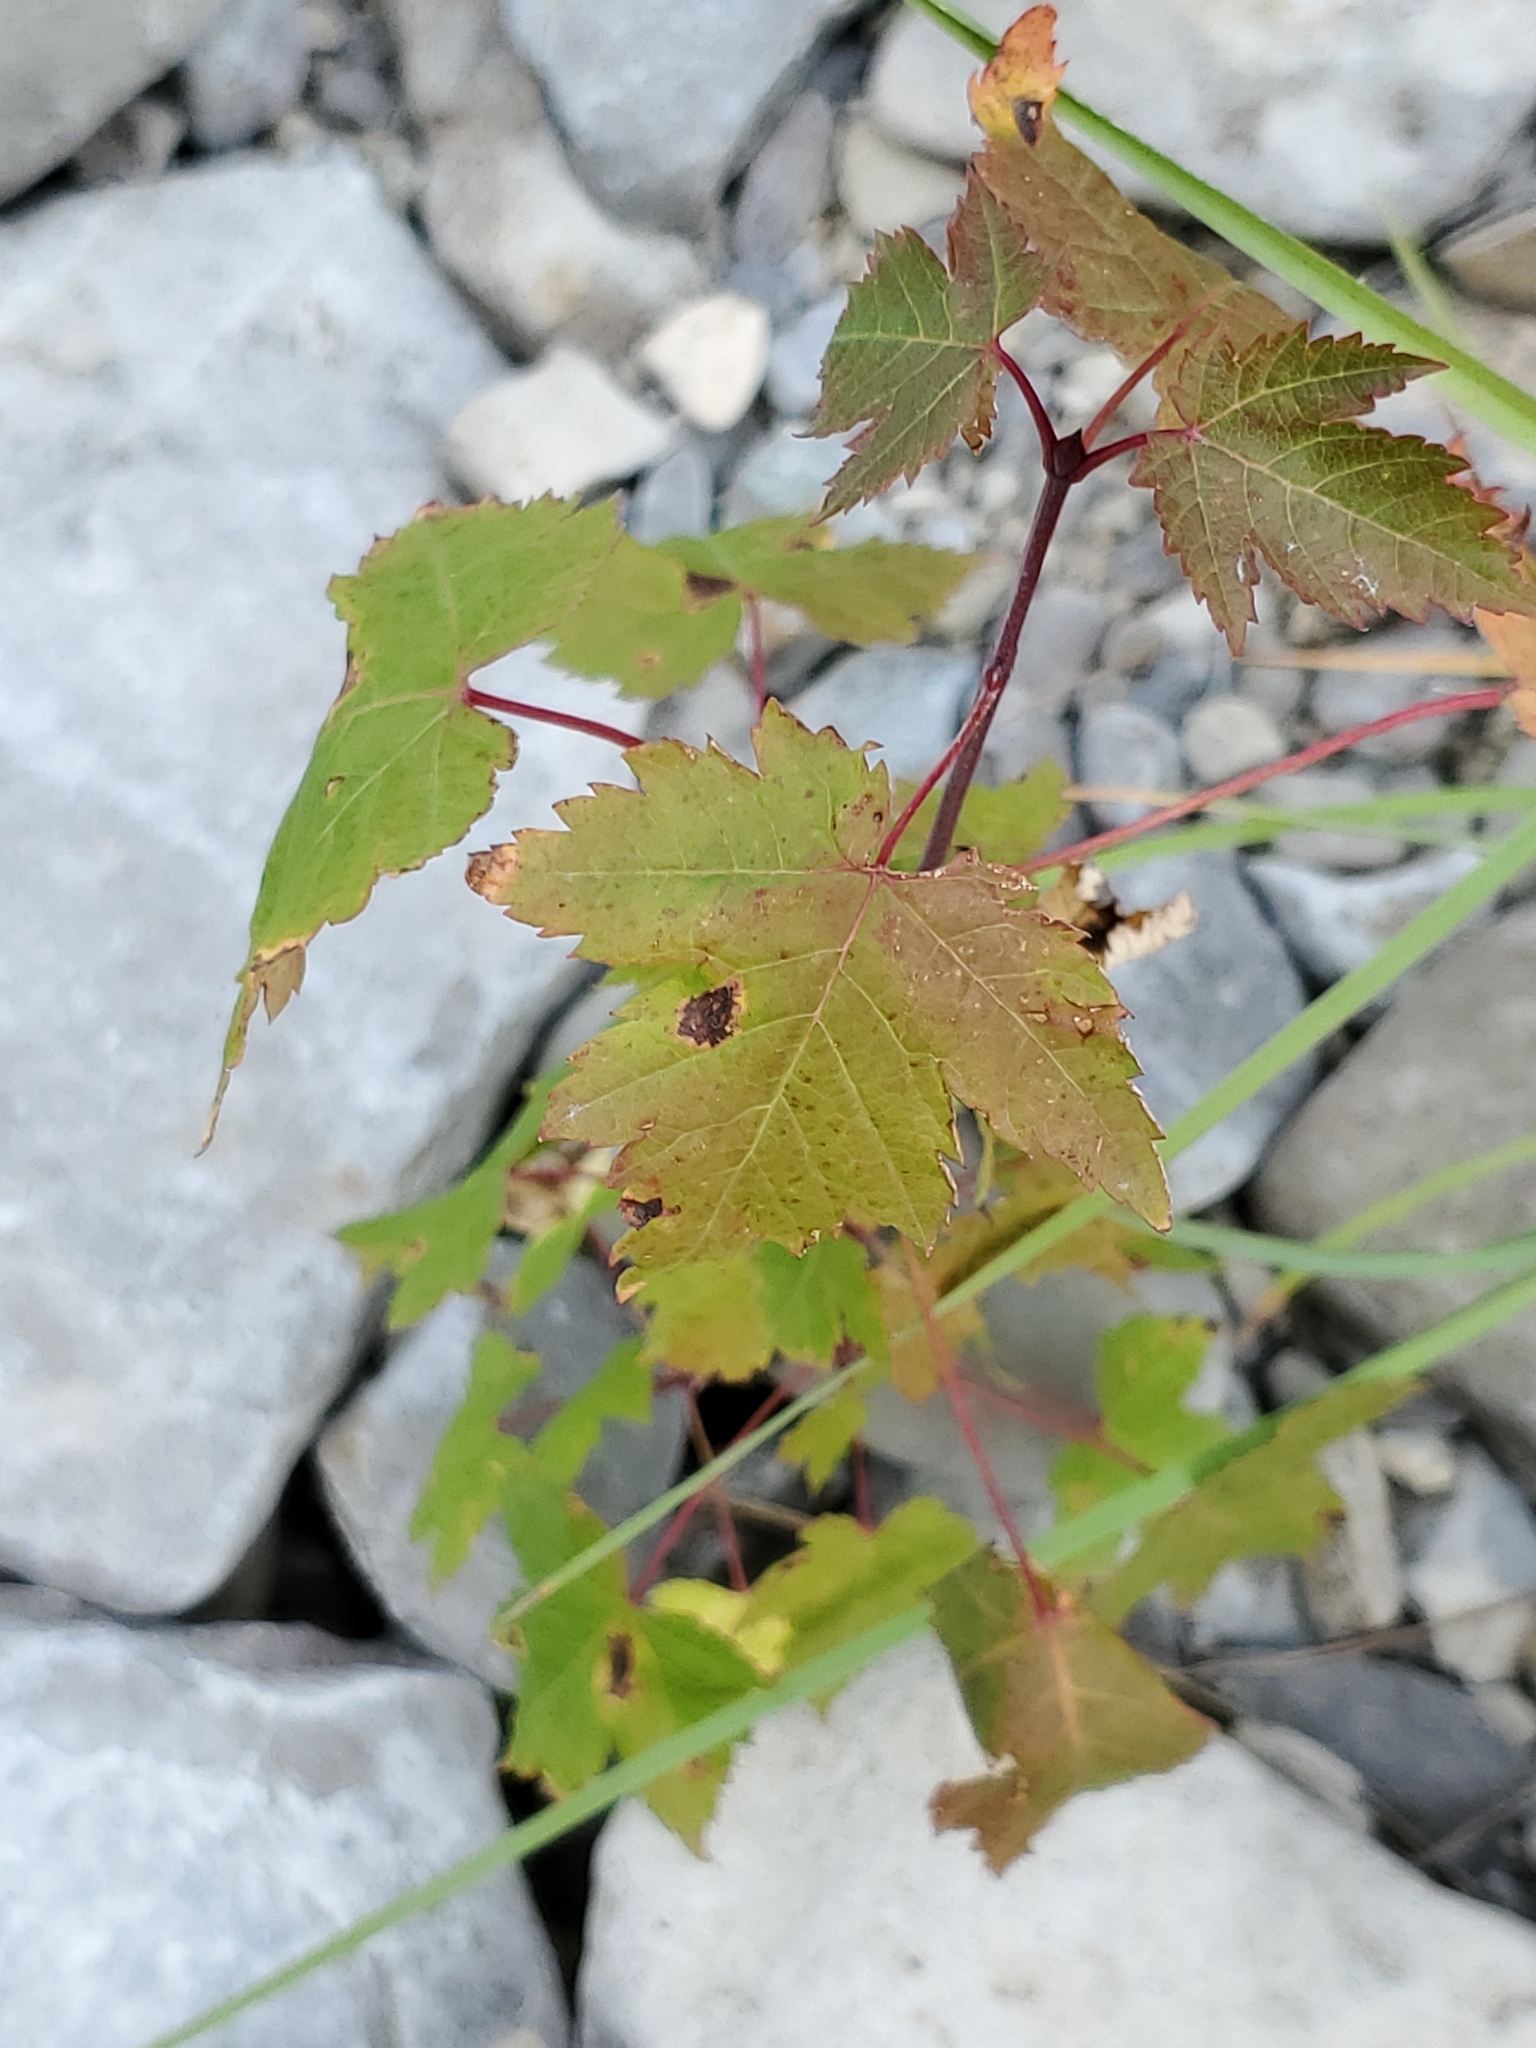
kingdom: Plantae
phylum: Tracheophyta
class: Magnoliopsida
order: Sapindales
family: Sapindaceae
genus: Acer
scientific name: Acer glabrum
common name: Rocky mountain maple
